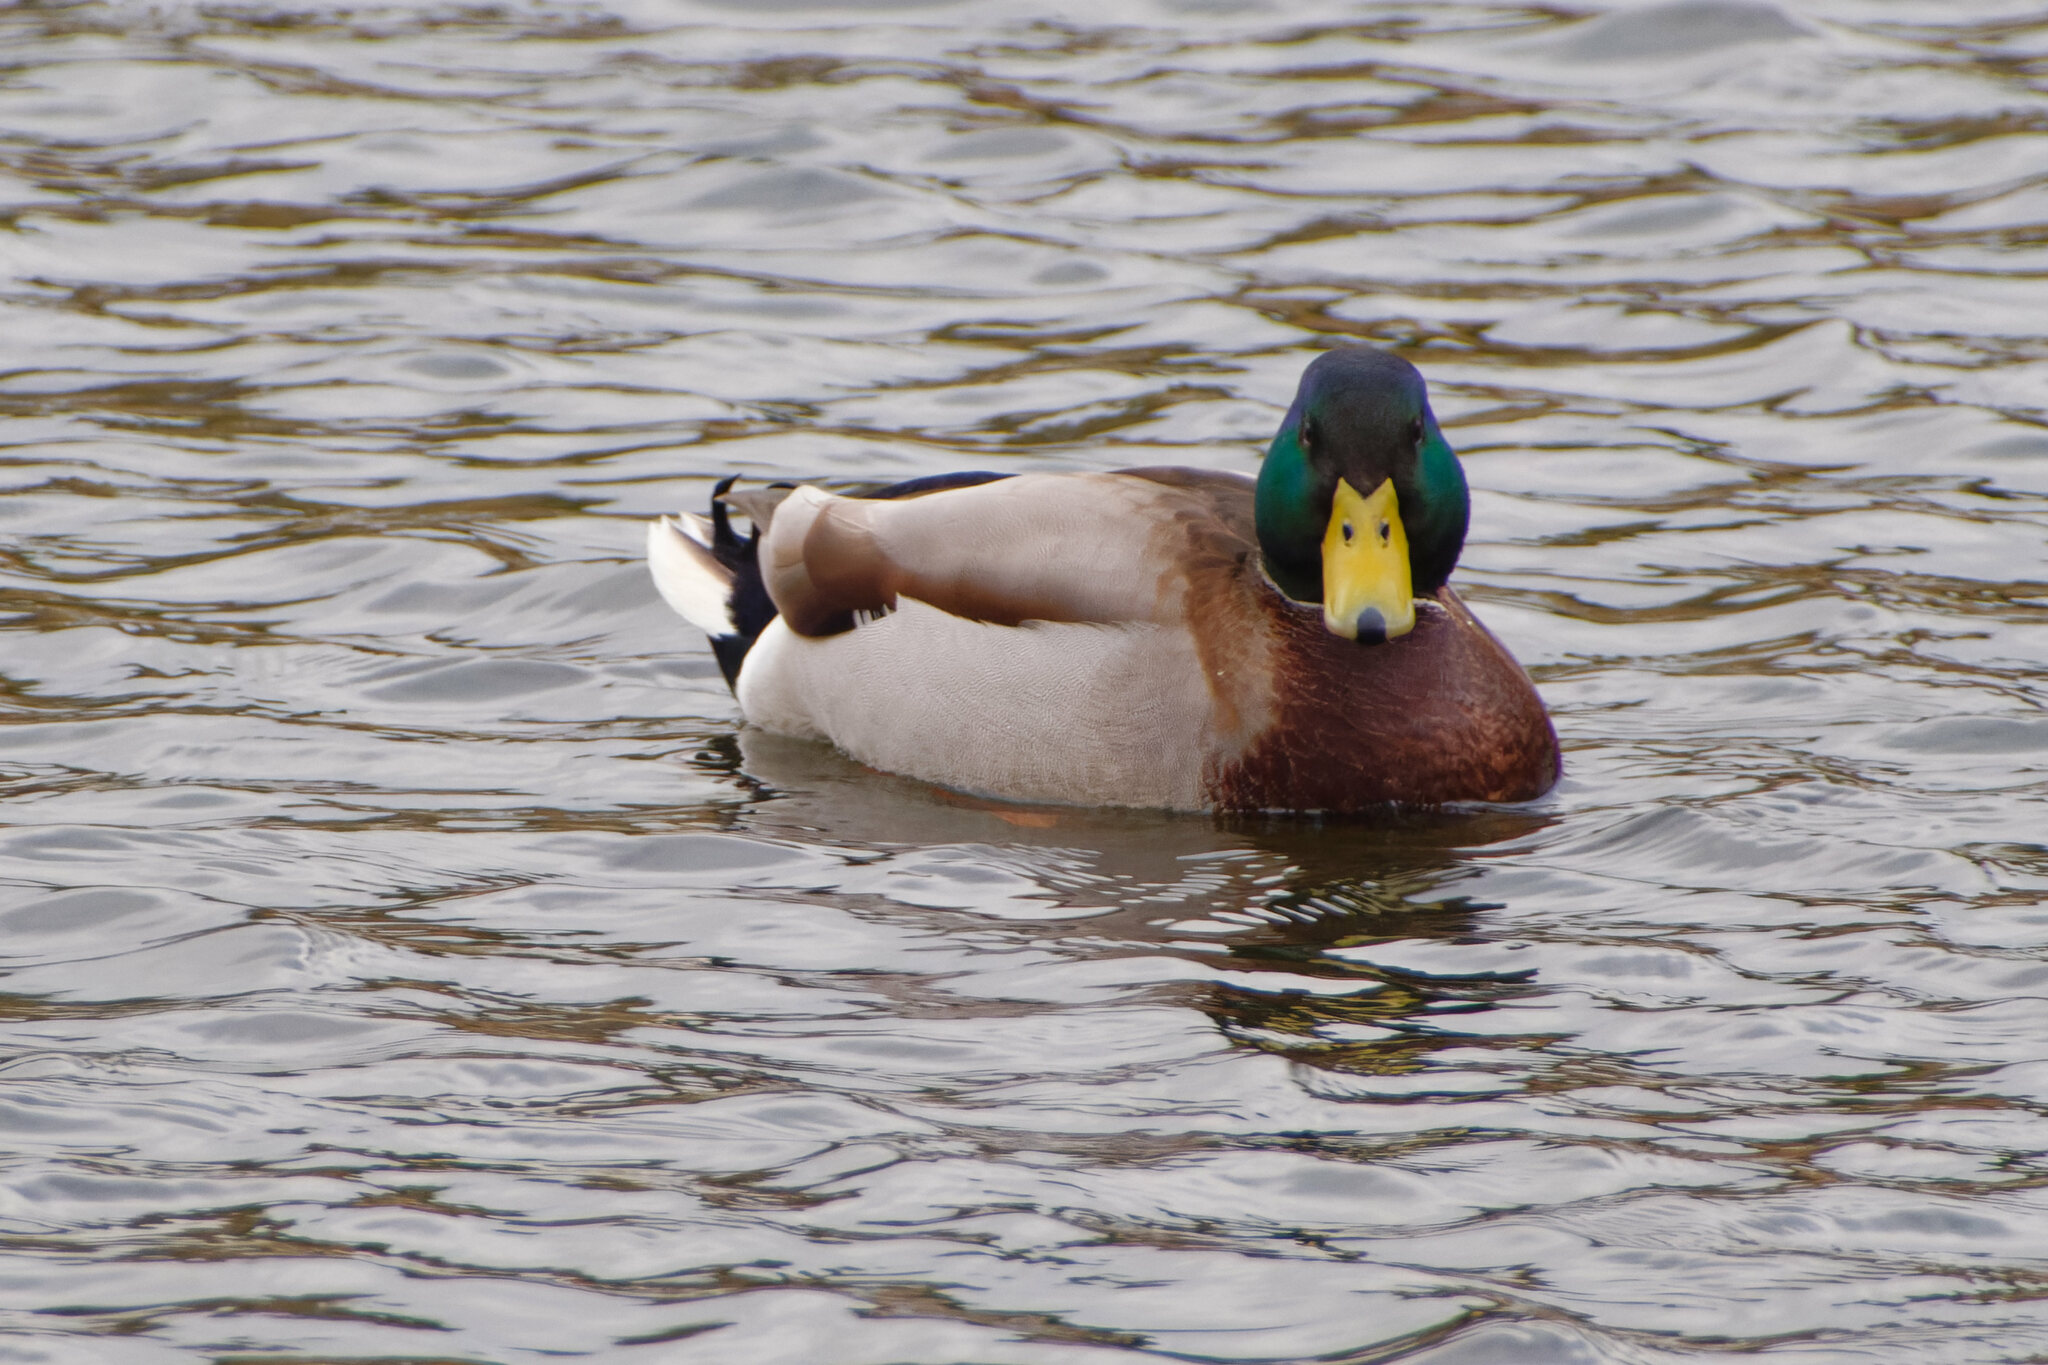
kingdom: Animalia
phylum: Chordata
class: Aves
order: Anseriformes
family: Anatidae
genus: Anas
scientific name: Anas platyrhynchos
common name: Mallard
